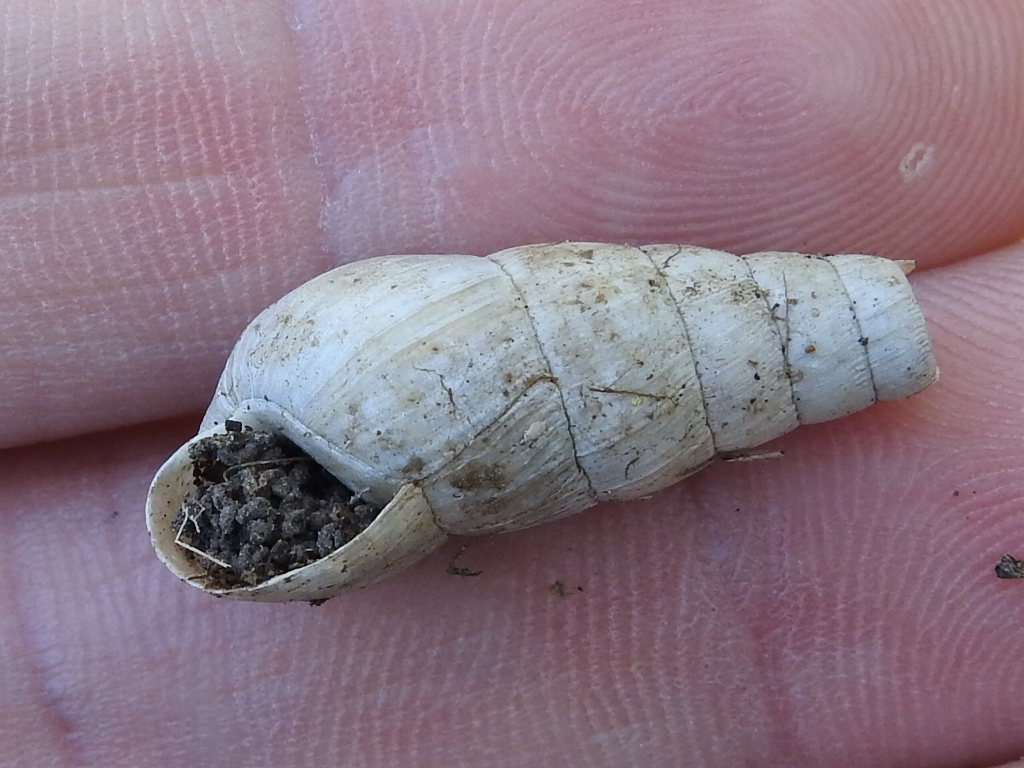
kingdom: Animalia
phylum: Mollusca
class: Gastropoda
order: Stylommatophora
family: Achatinidae
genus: Rumina
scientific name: Rumina decollata
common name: Decollate snail
